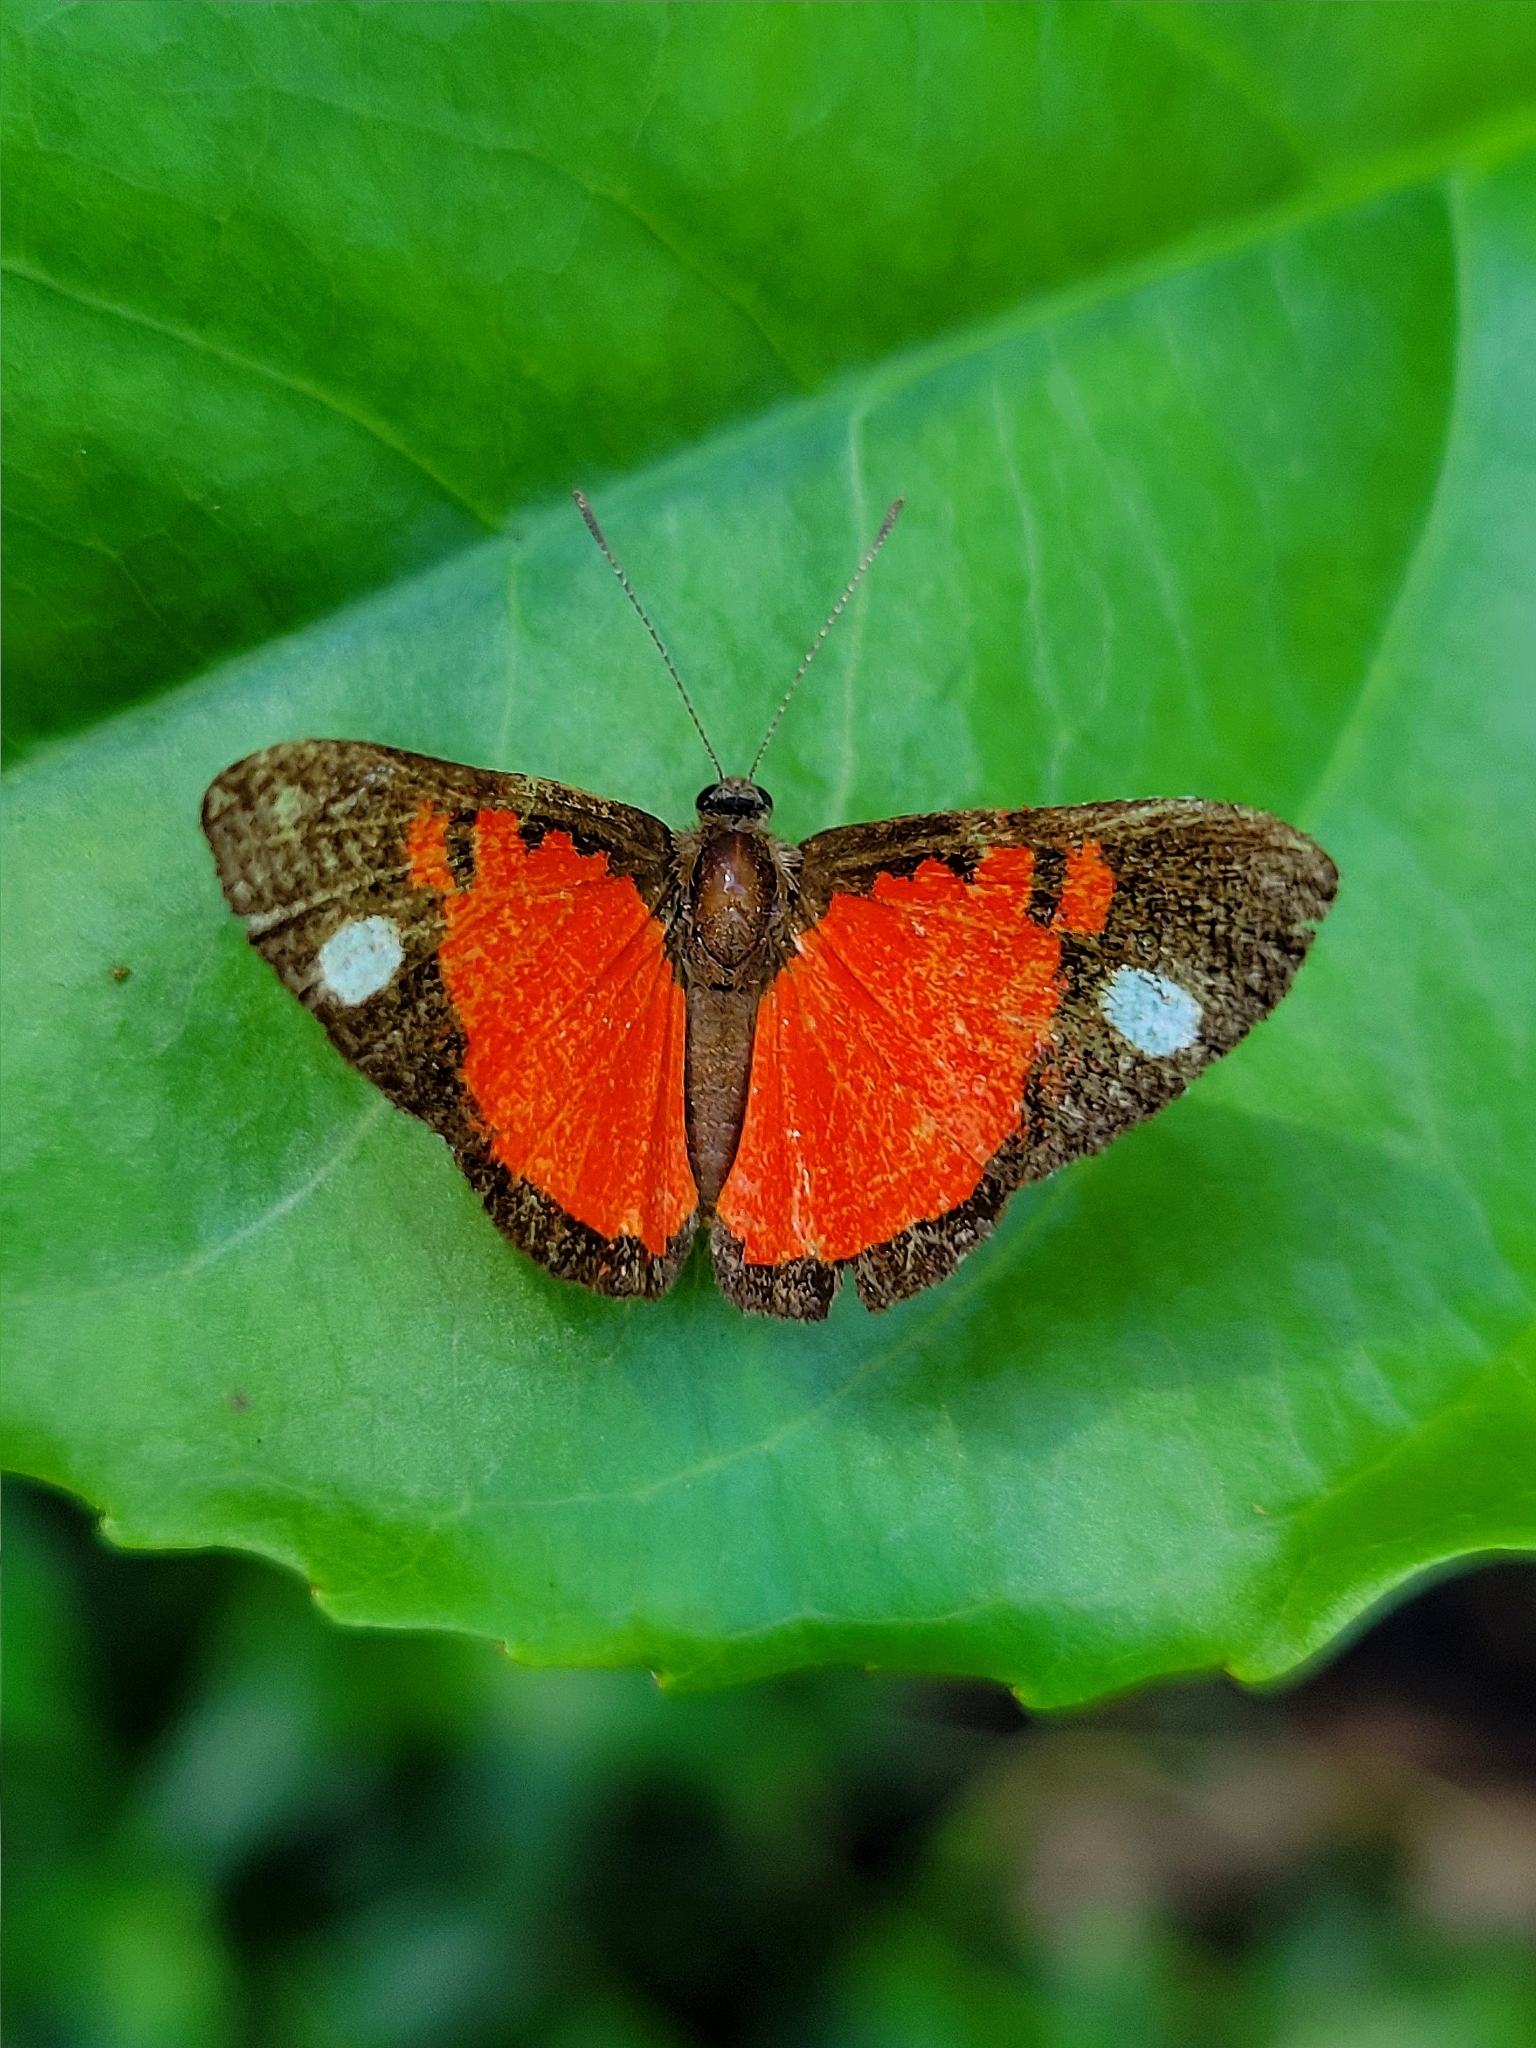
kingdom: Animalia
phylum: Arthropoda
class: Insecta
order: Lepidoptera
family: Lycaenidae
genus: Mesene
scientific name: Mesene phareus
